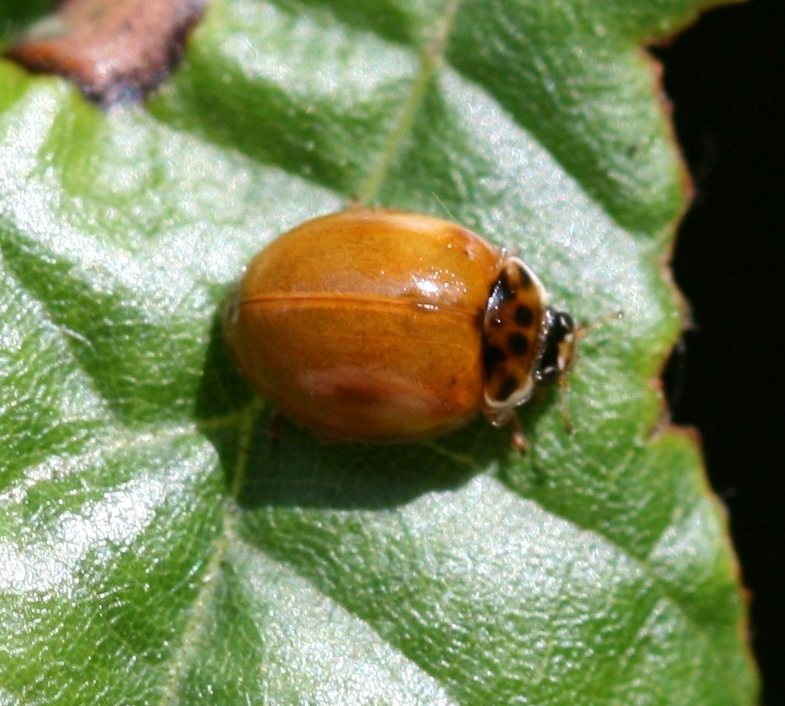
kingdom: Animalia
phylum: Arthropoda
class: Insecta
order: Coleoptera
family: Coccinellidae
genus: Adalia
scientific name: Adalia decempunctata
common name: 10-spot ladybird
